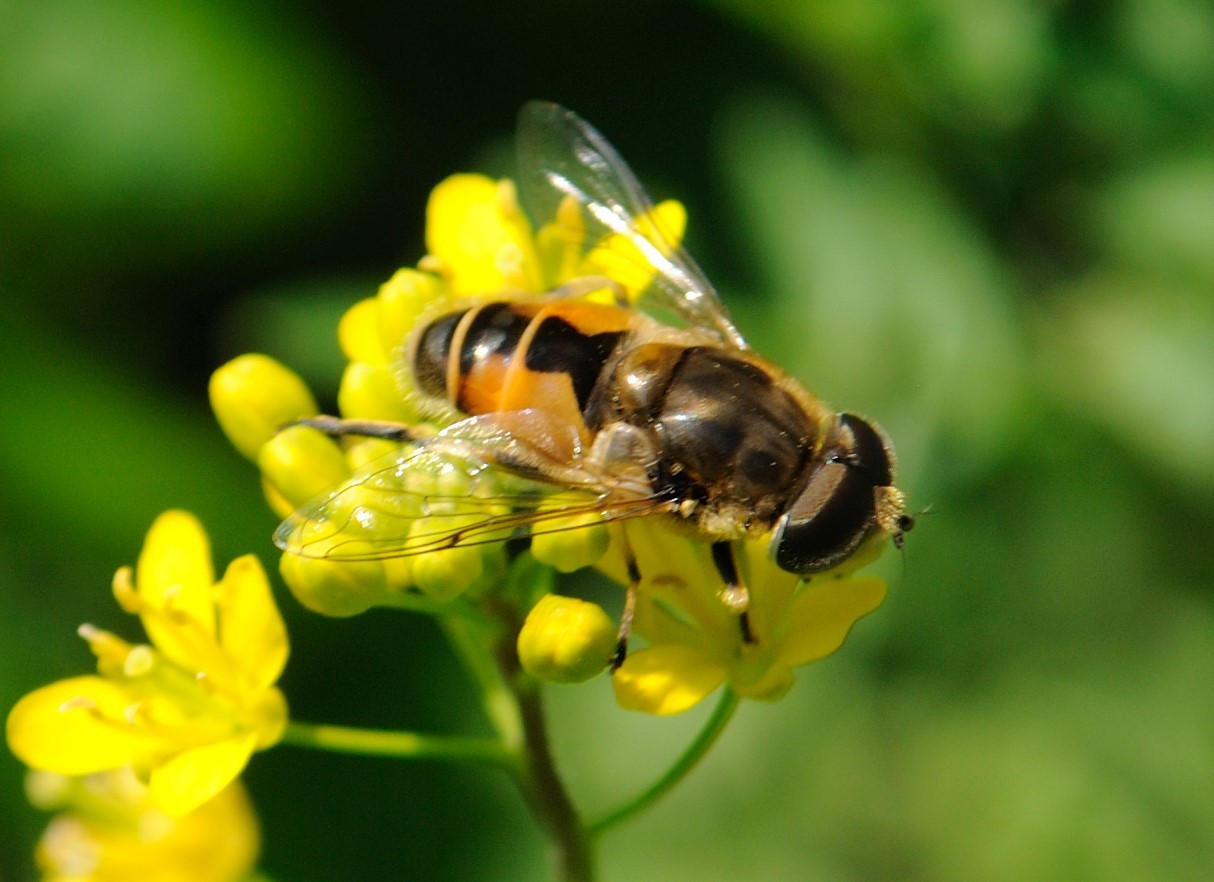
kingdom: Animalia
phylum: Arthropoda
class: Insecta
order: Diptera
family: Syrphidae
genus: Eristalis
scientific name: Eristalis arbustorum
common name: Hover fly
